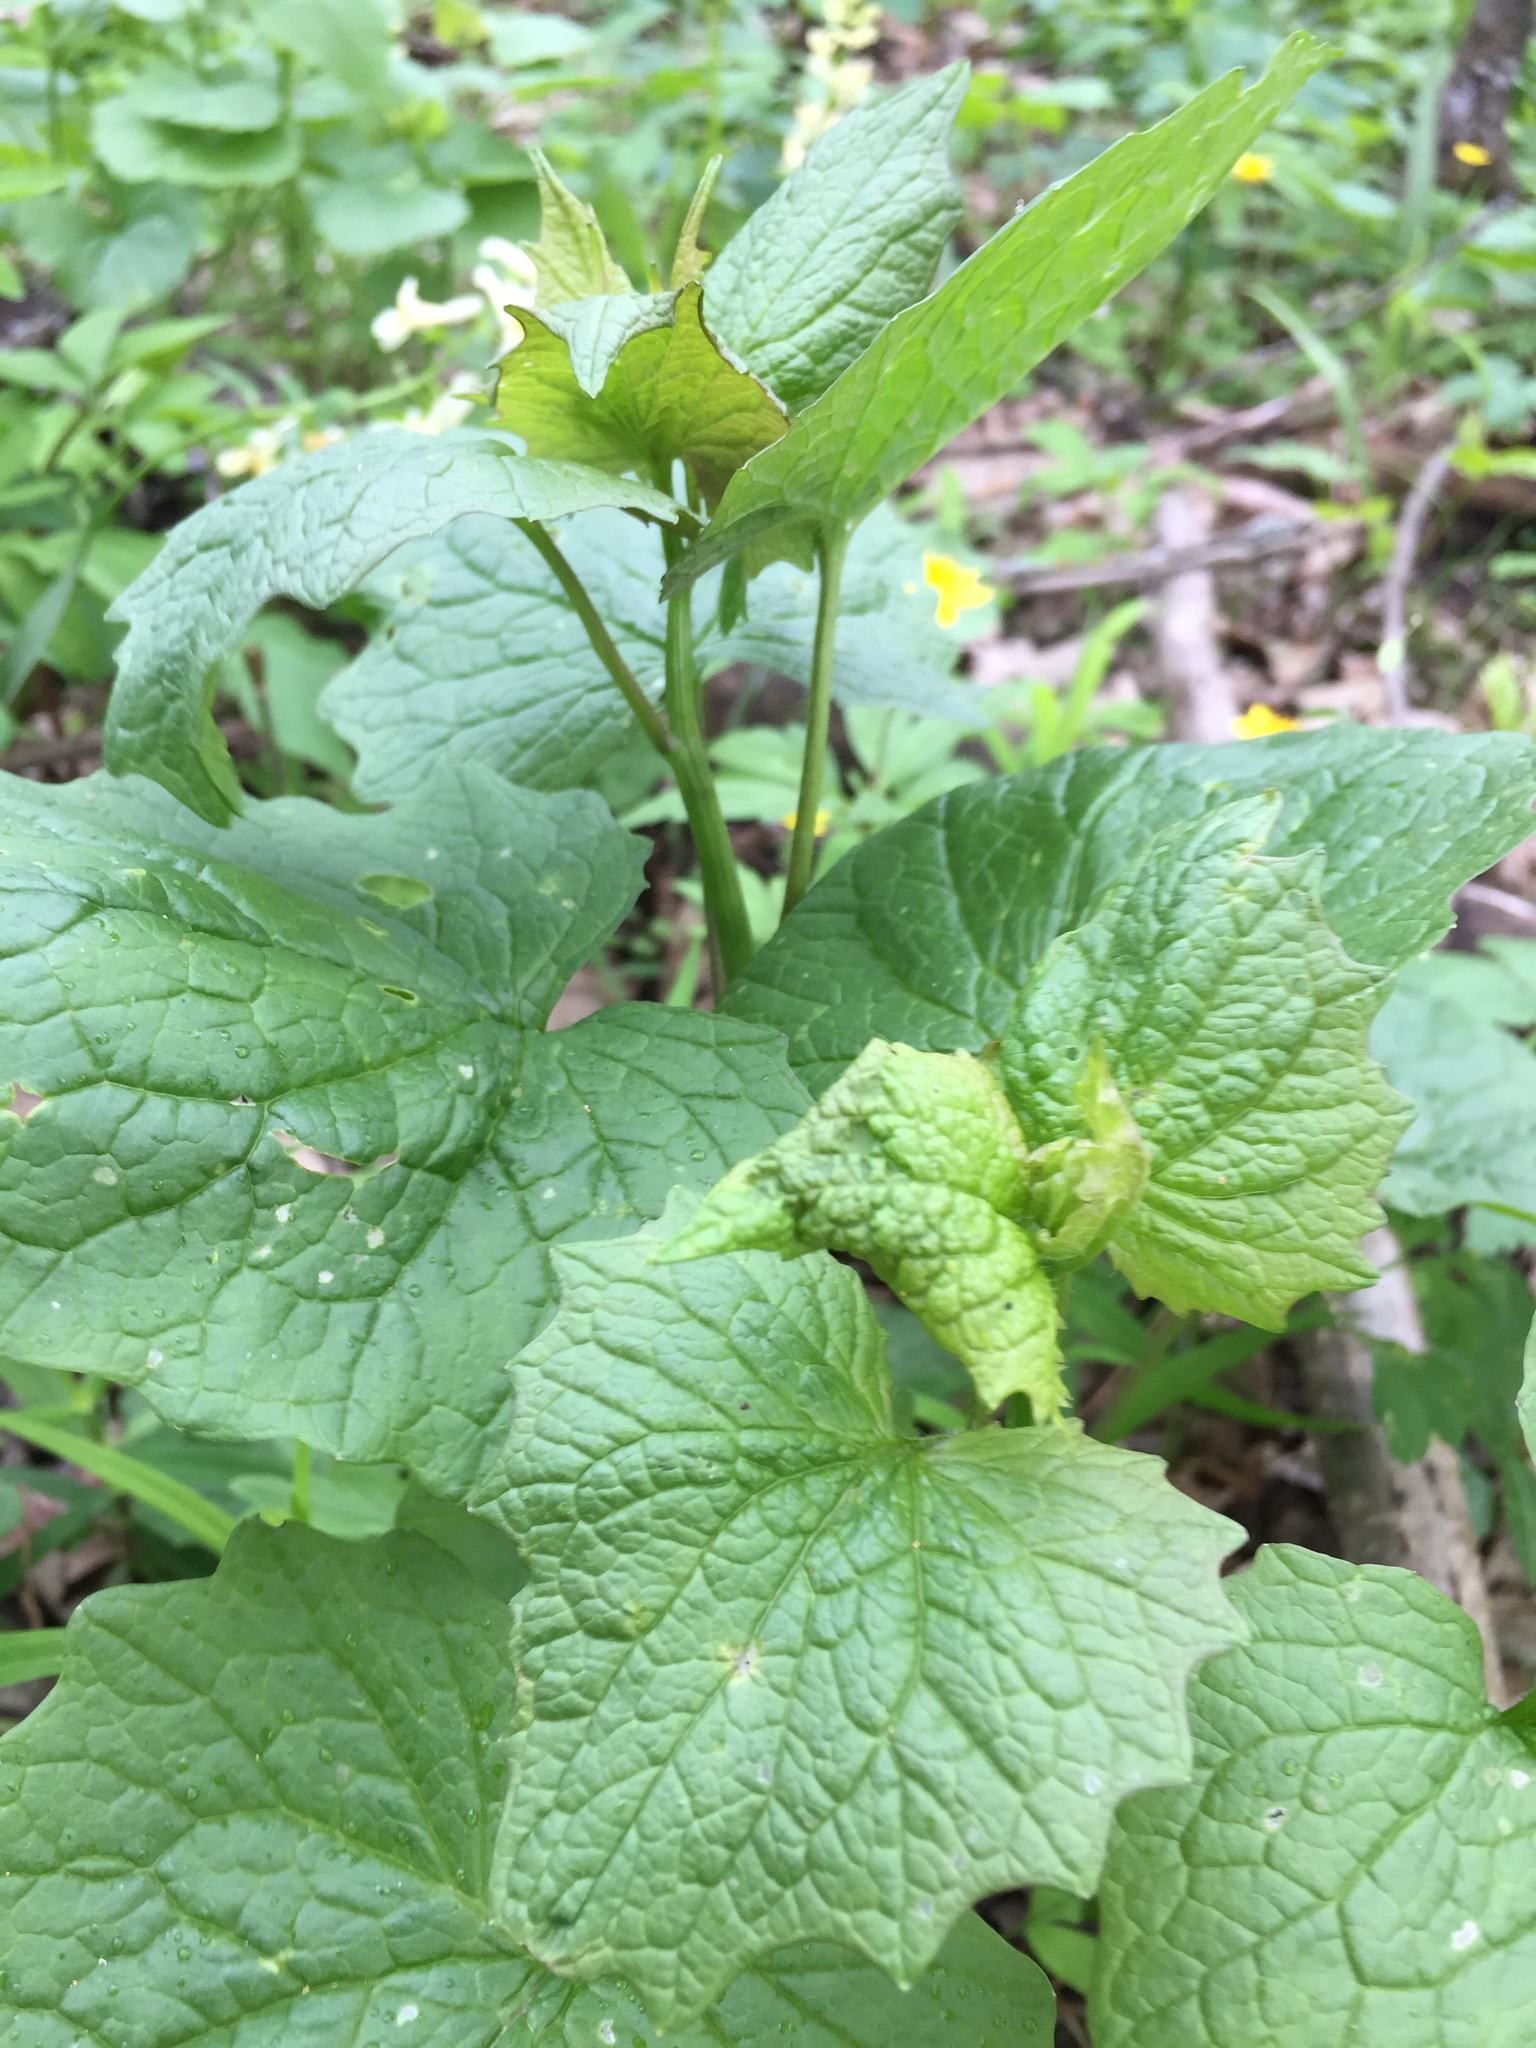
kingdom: Plantae
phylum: Tracheophyta
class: Magnoliopsida
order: Brassicales
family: Brassicaceae
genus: Alliaria
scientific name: Alliaria petiolata
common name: Garlic mustard
